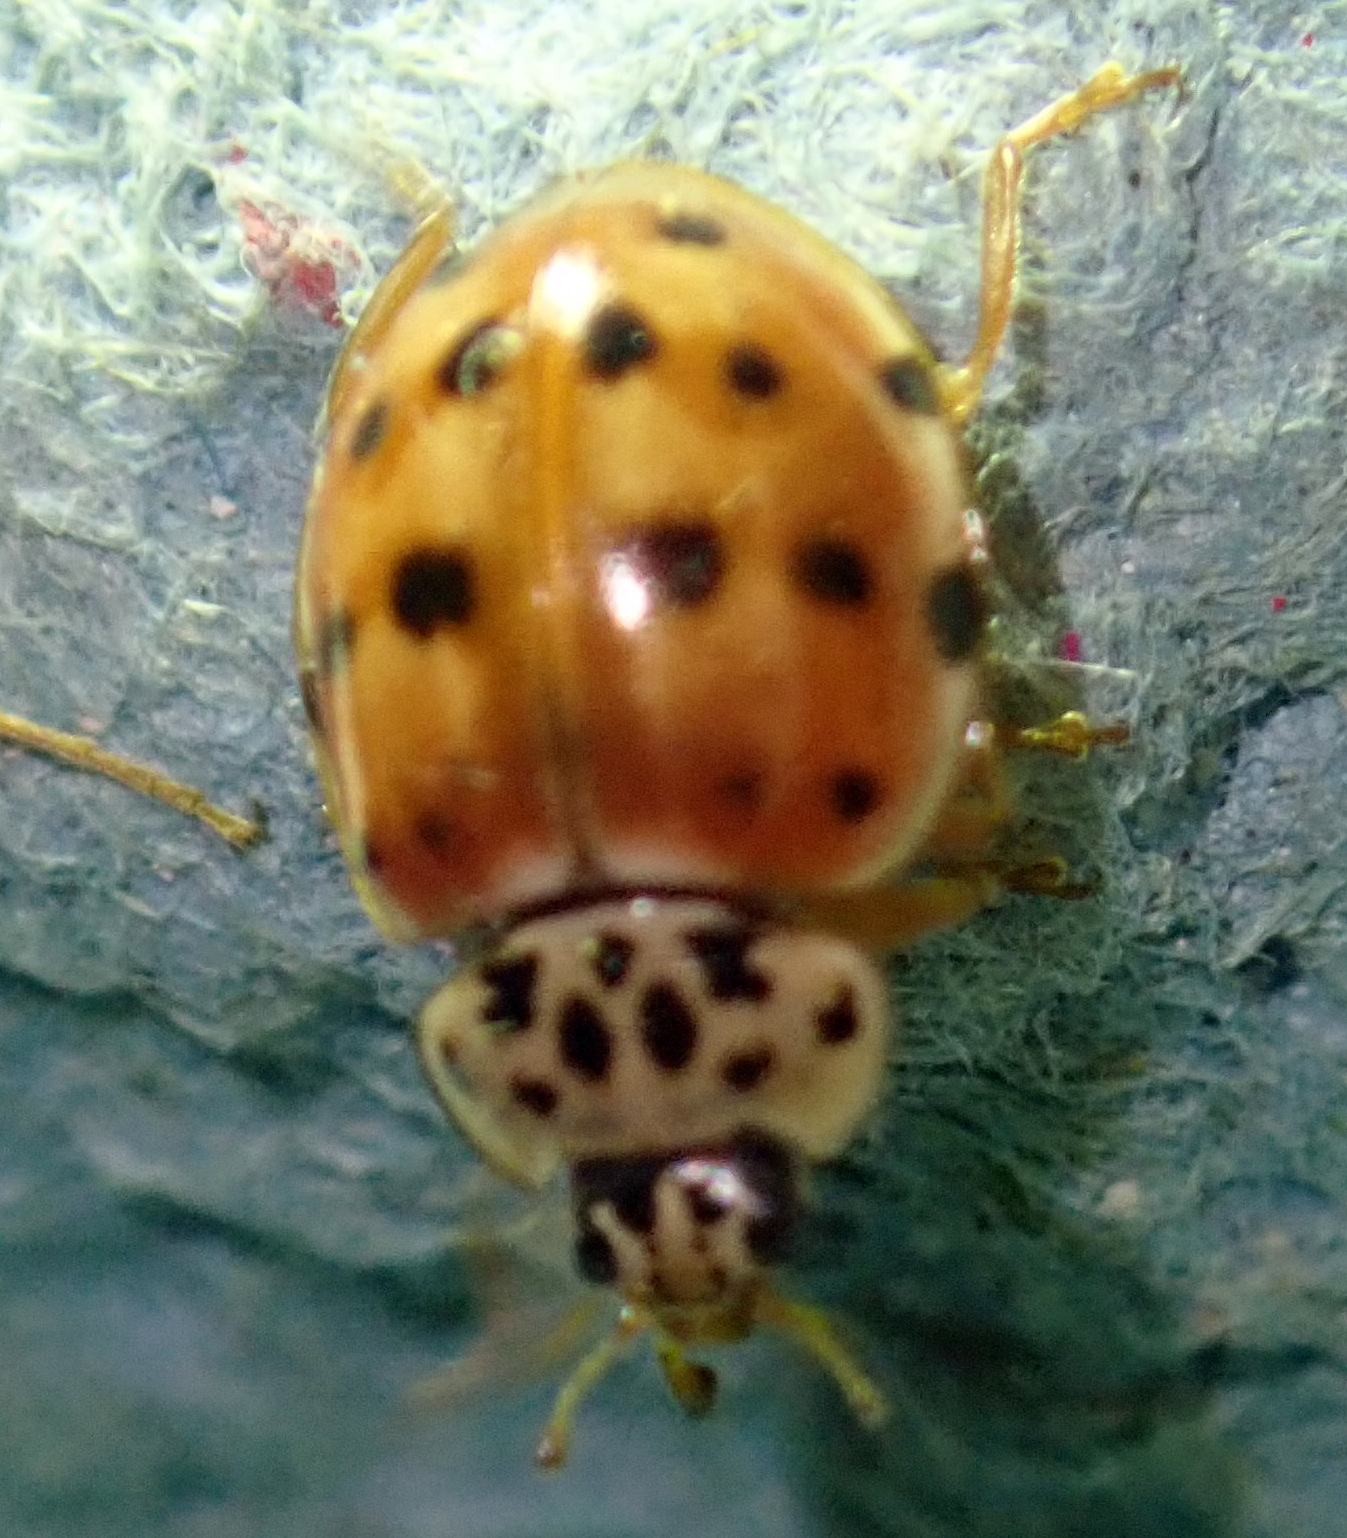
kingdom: Animalia
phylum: Arthropoda
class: Insecta
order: Coleoptera
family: Coccinellidae
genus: Harmonia
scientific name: Harmonia quadripunctata
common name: Cream-streaked ladybird
